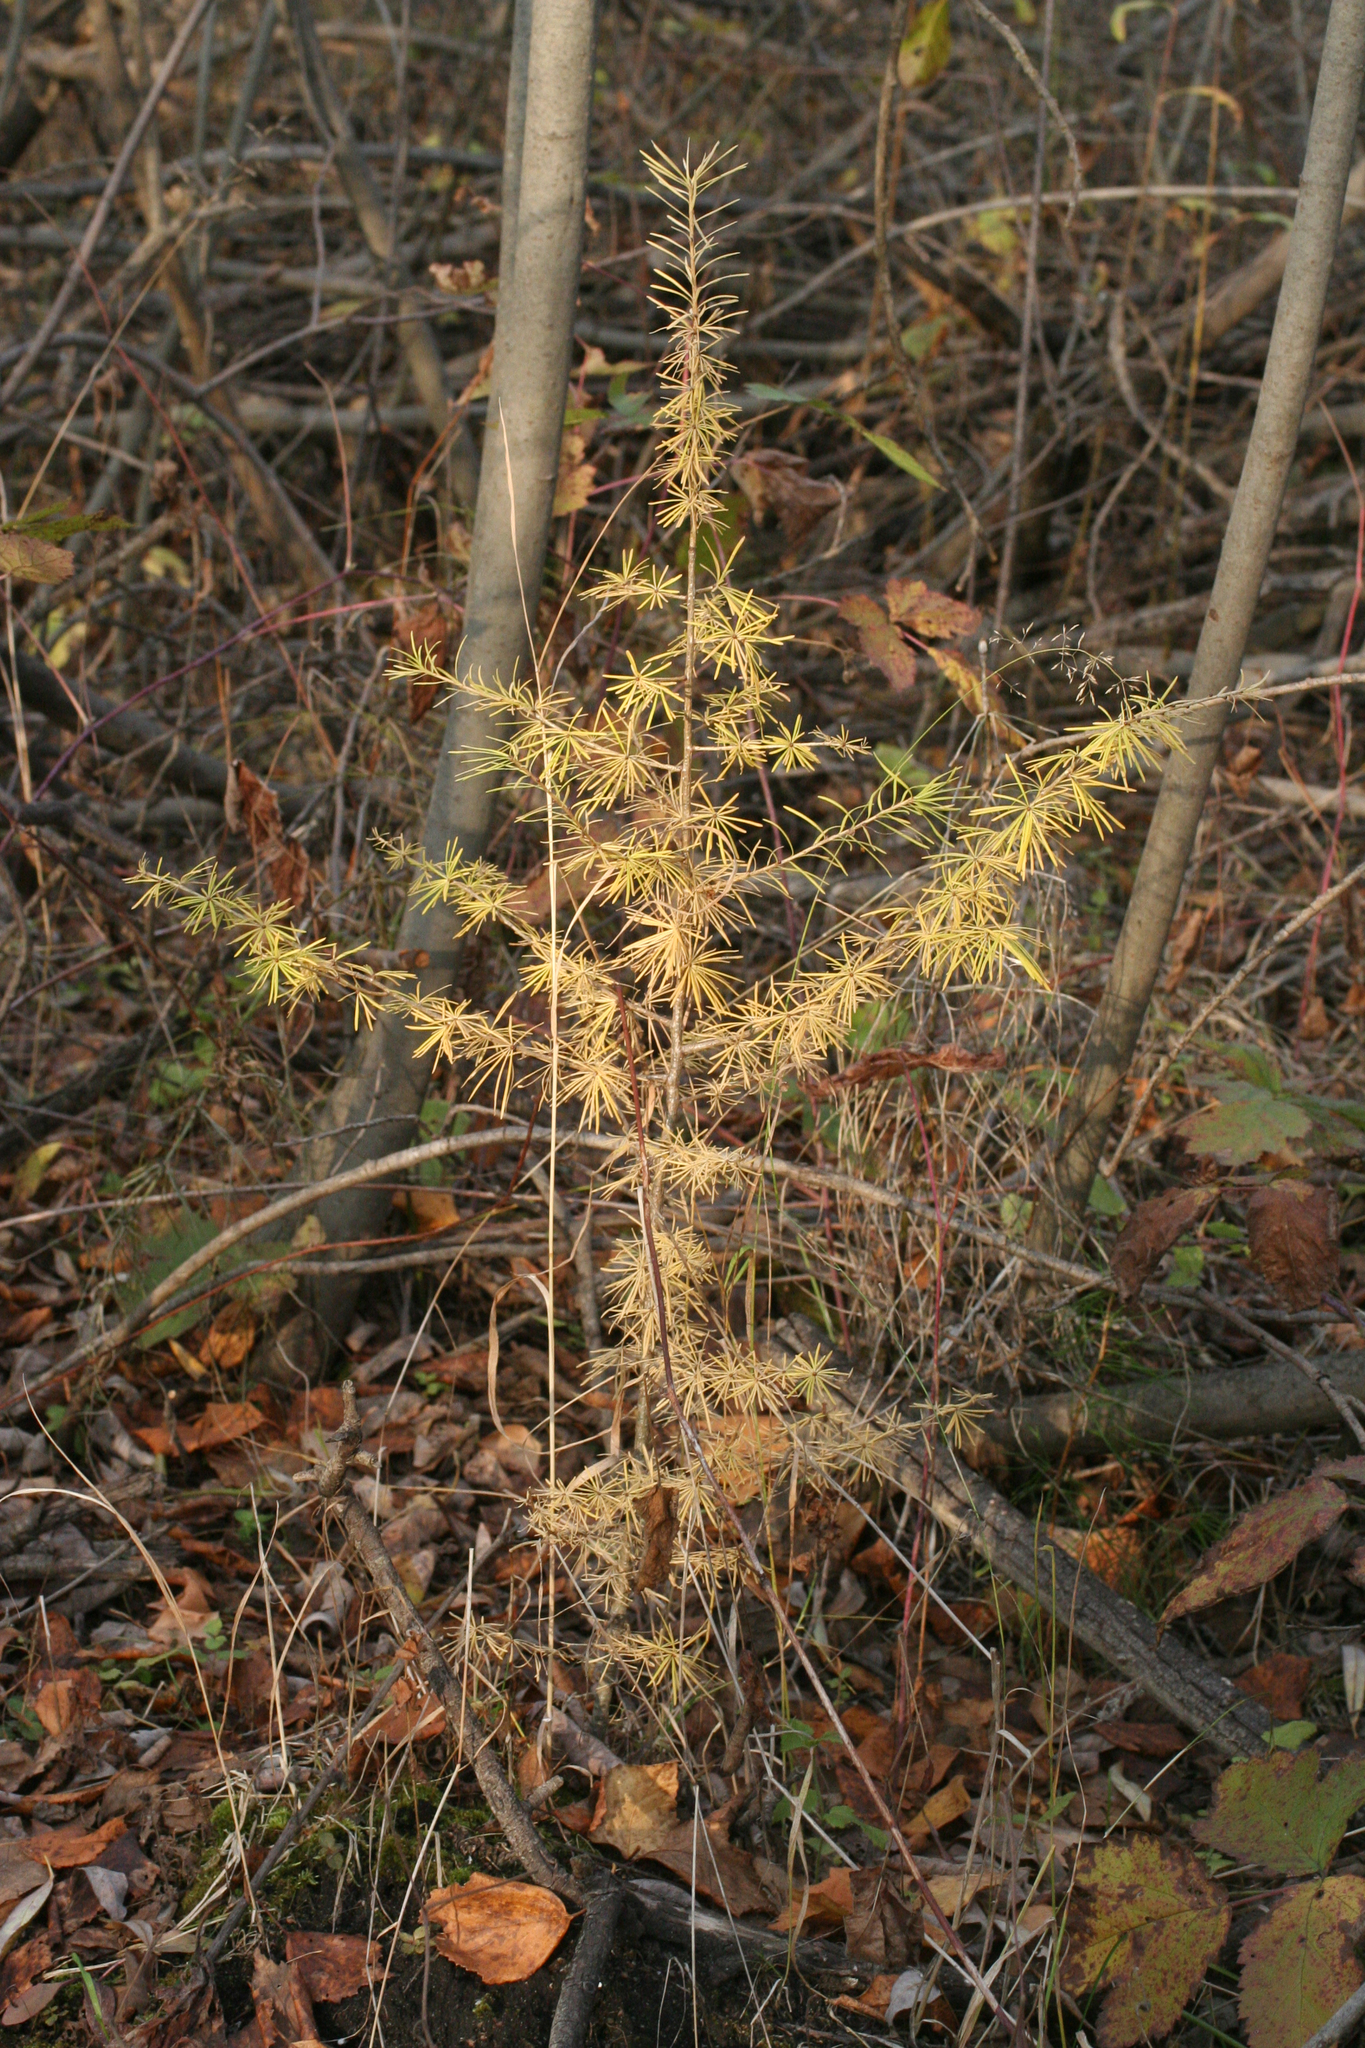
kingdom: Plantae
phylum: Tracheophyta
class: Pinopsida
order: Pinales
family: Pinaceae
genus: Larix
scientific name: Larix sibirica
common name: Siberian larch
